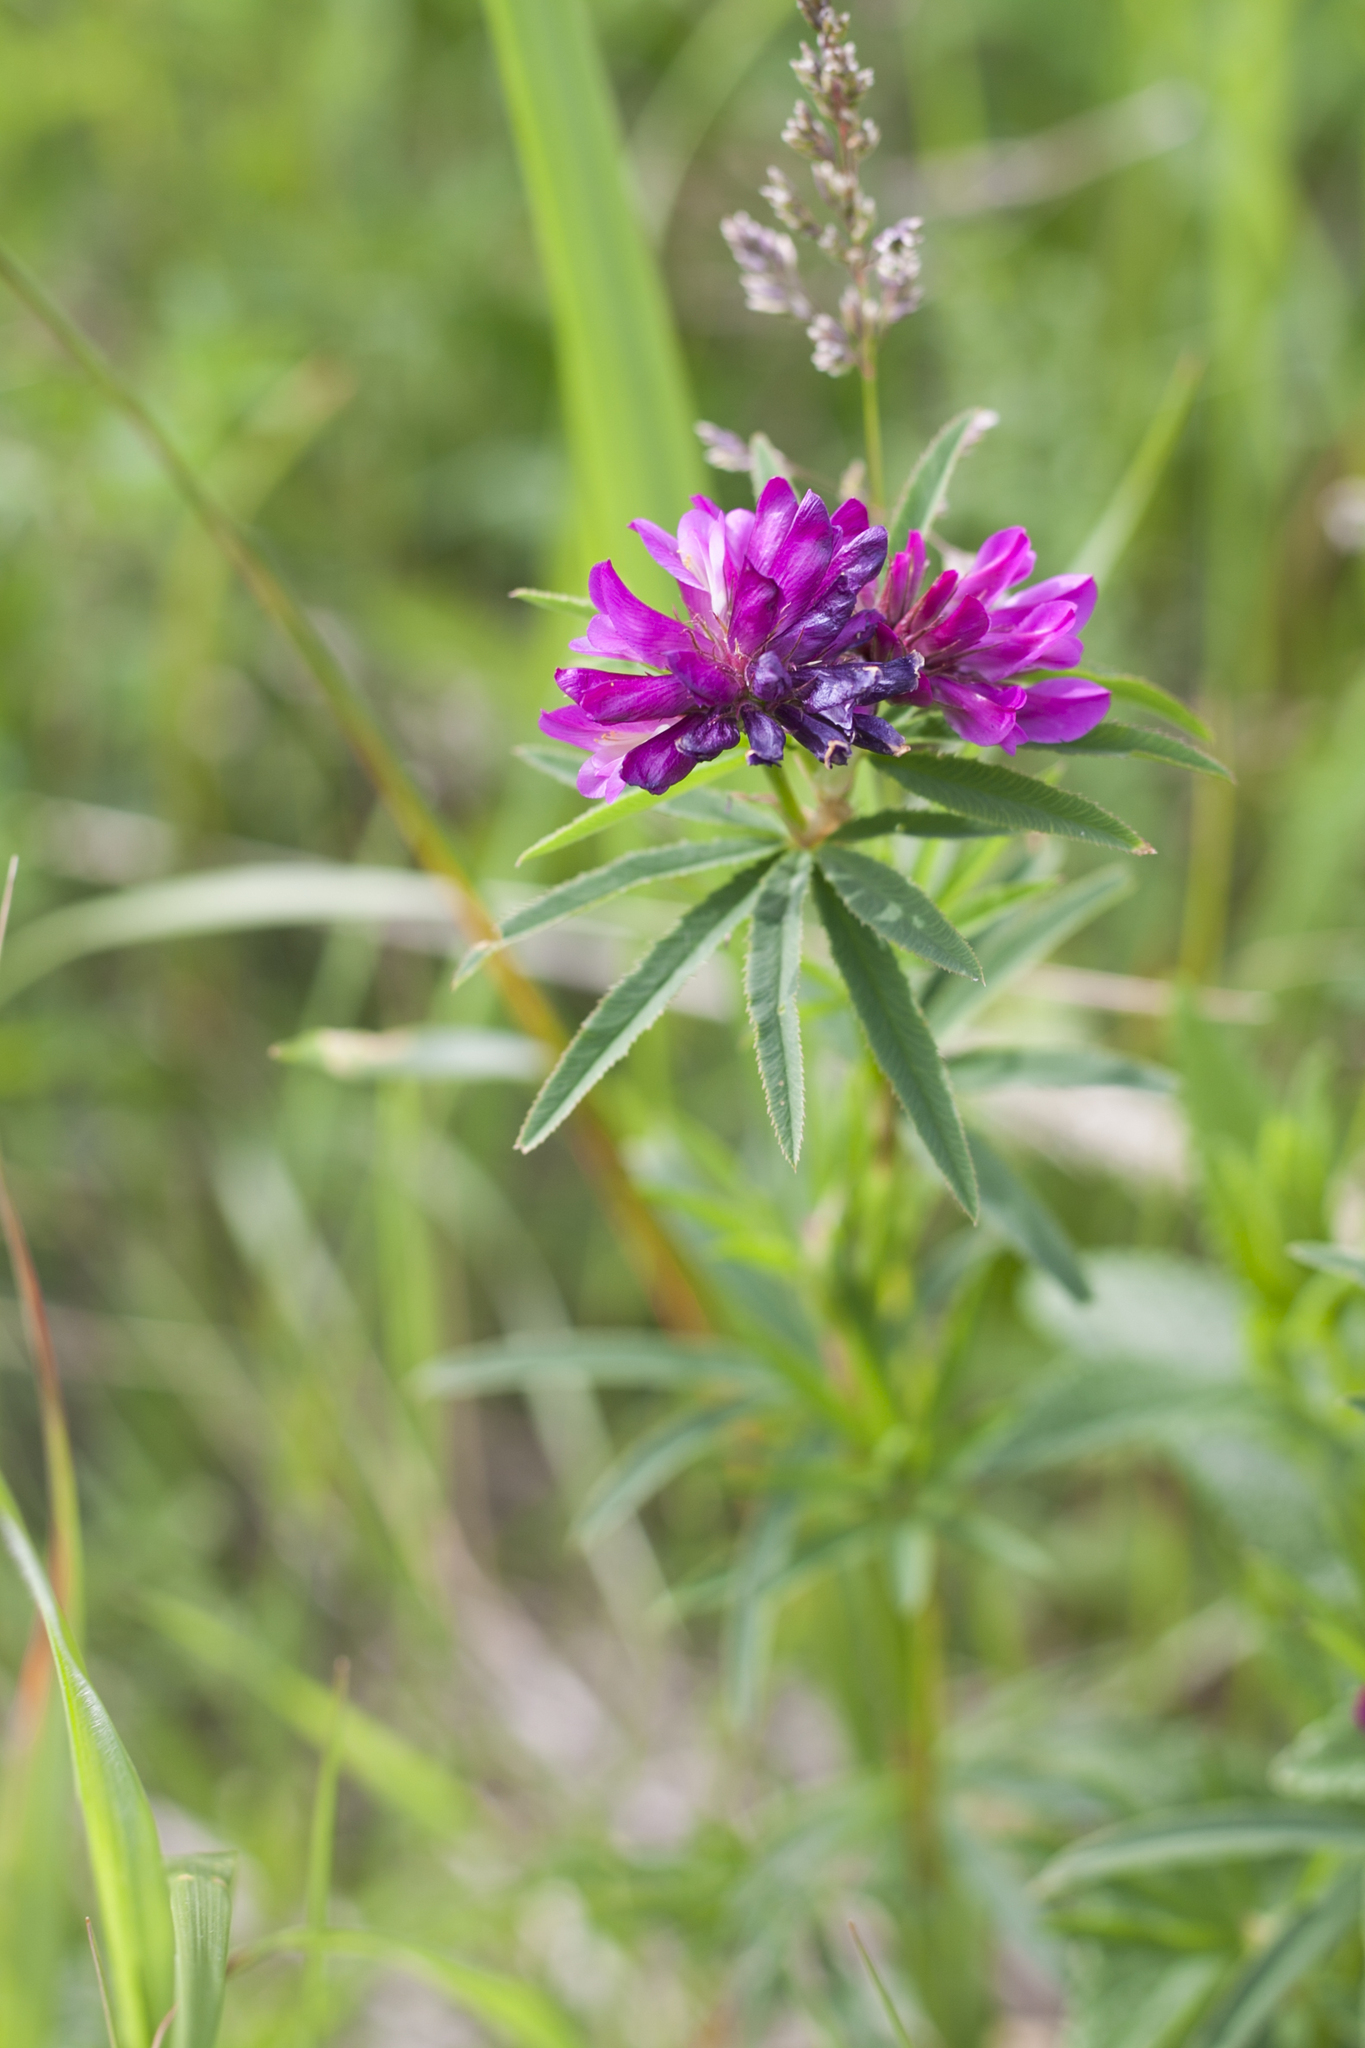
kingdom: Plantae
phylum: Tracheophyta
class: Magnoliopsida
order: Fabales
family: Fabaceae
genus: Trifolium
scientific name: Trifolium lupinaster
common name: Lupine clover
